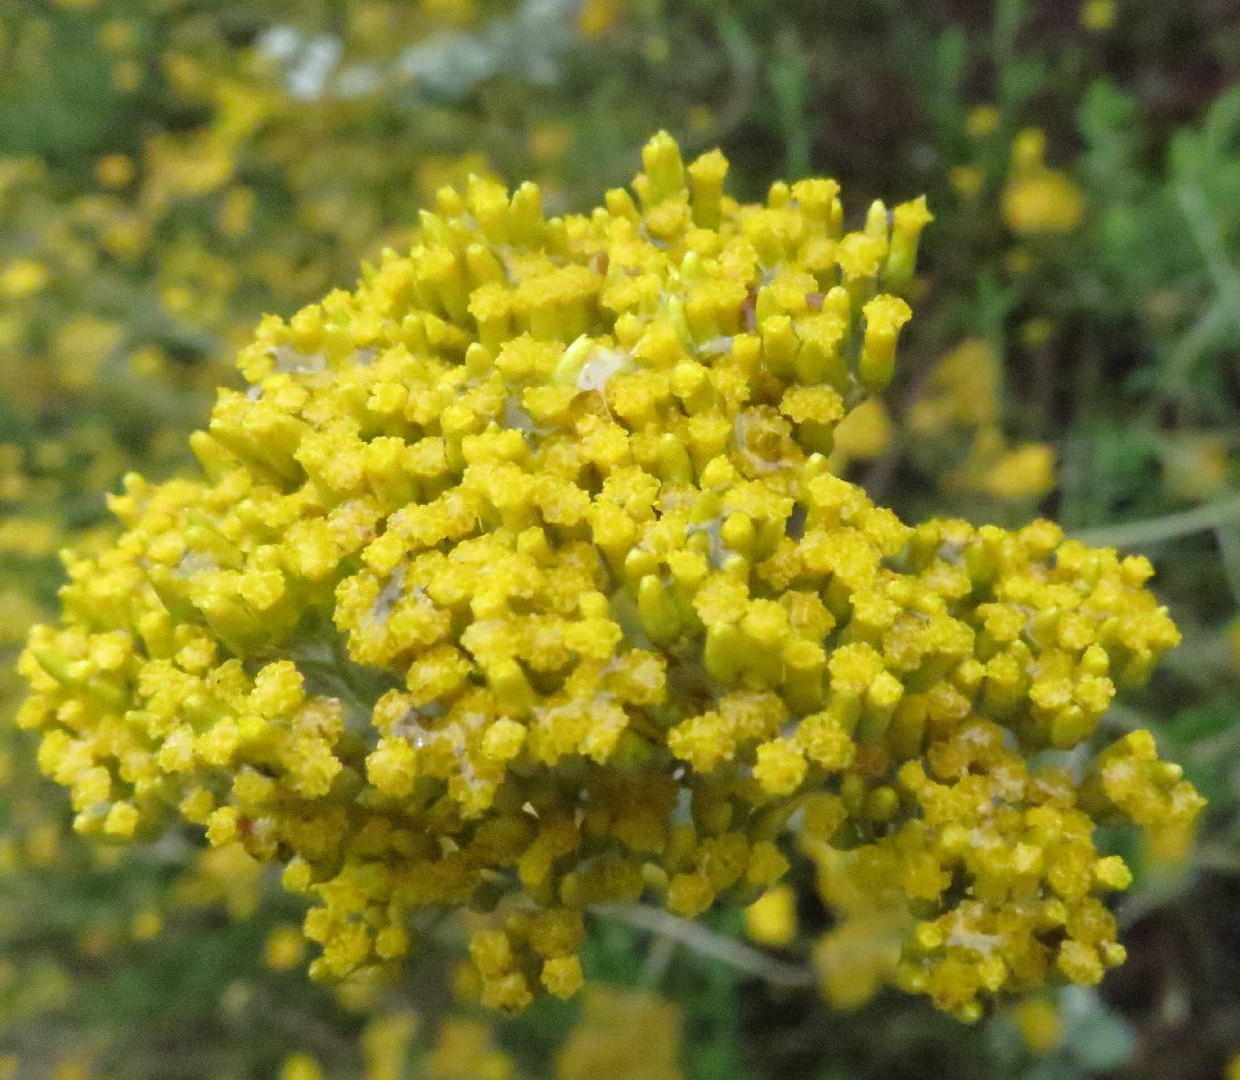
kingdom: Plantae
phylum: Tracheophyta
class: Magnoliopsida
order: Asterales
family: Asteraceae
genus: Helichrysum
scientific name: Helichrysum cymosum
